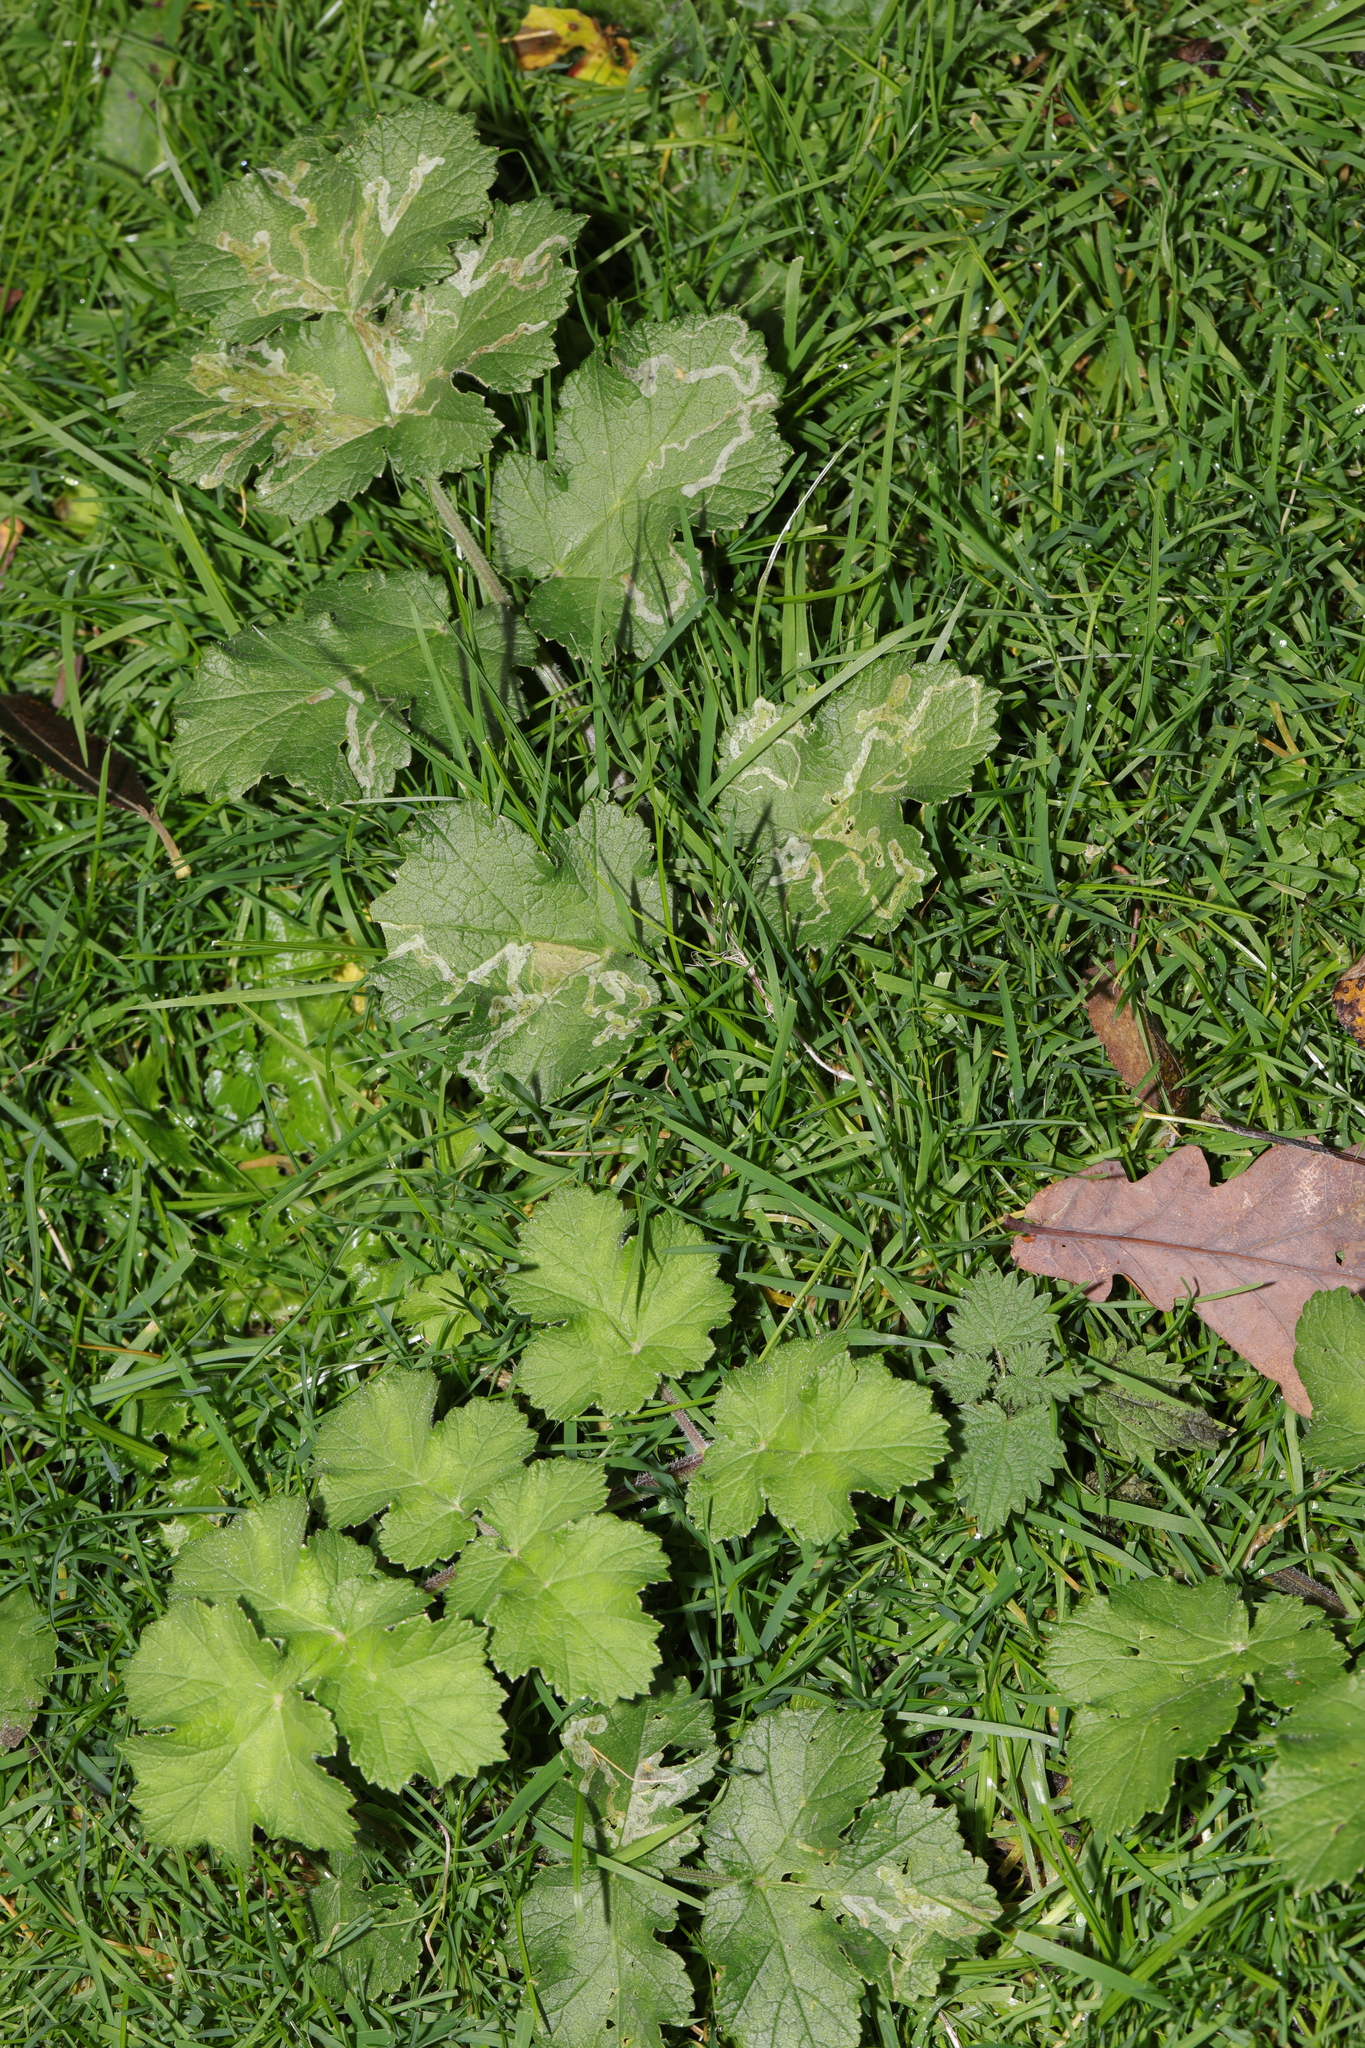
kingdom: Plantae
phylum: Tracheophyta
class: Magnoliopsida
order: Apiales
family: Apiaceae
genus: Heracleum
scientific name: Heracleum sphondylium
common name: Hogweed
